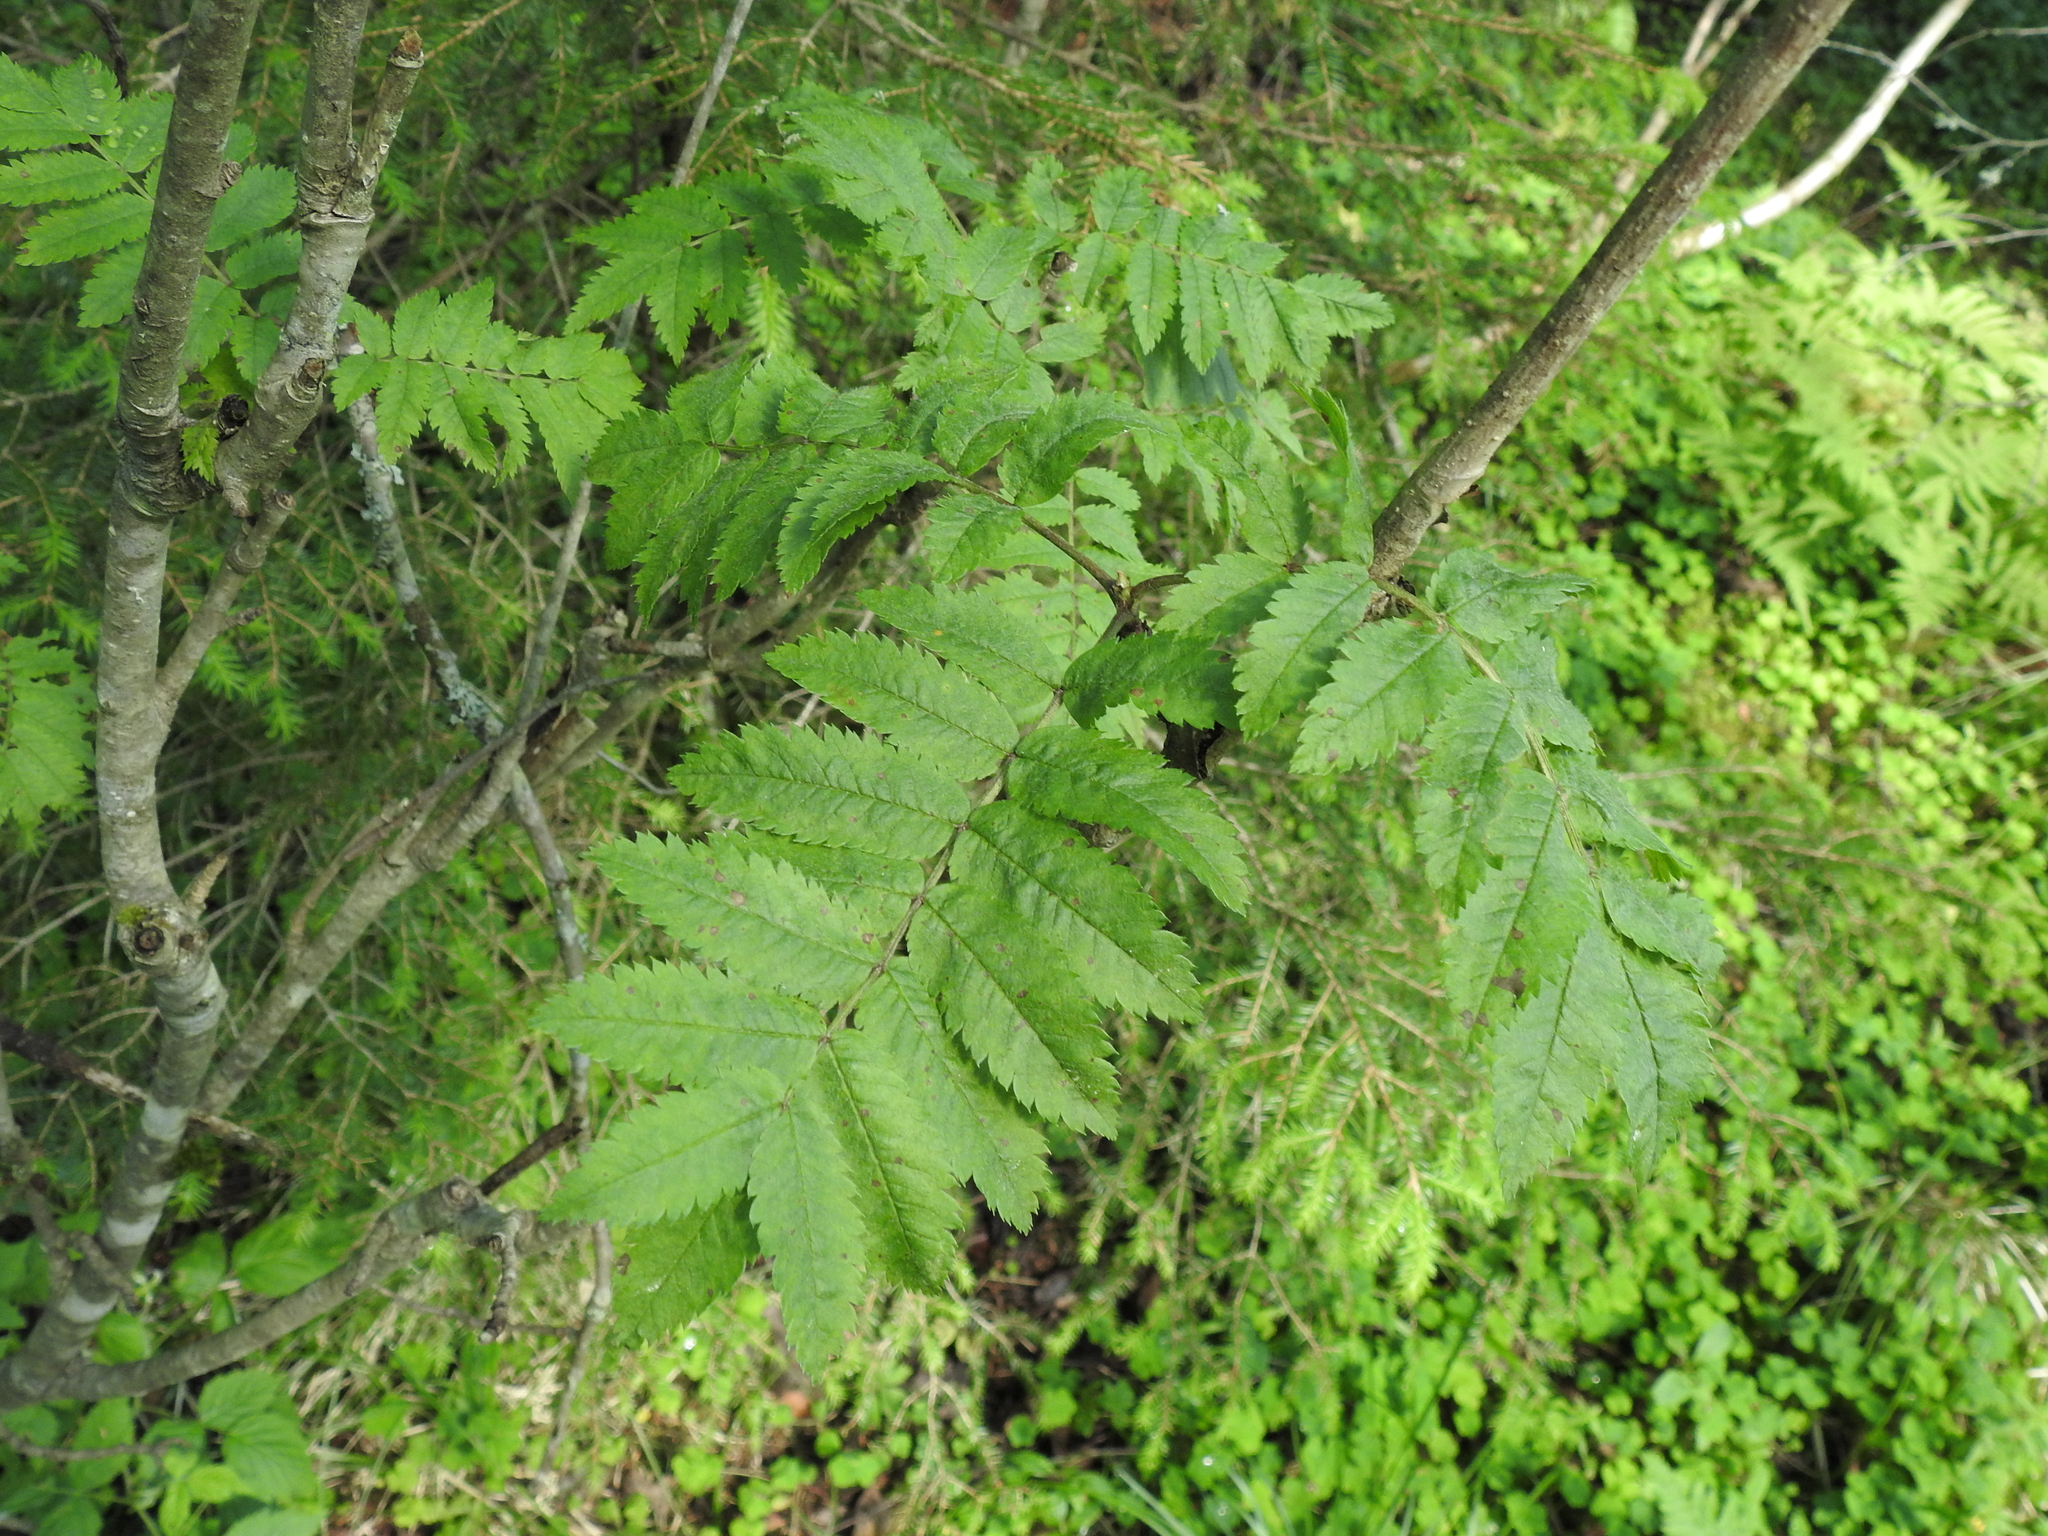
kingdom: Plantae
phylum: Tracheophyta
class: Magnoliopsida
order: Rosales
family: Rosaceae
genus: Sorbus
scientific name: Sorbus aucuparia
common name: Rowan
